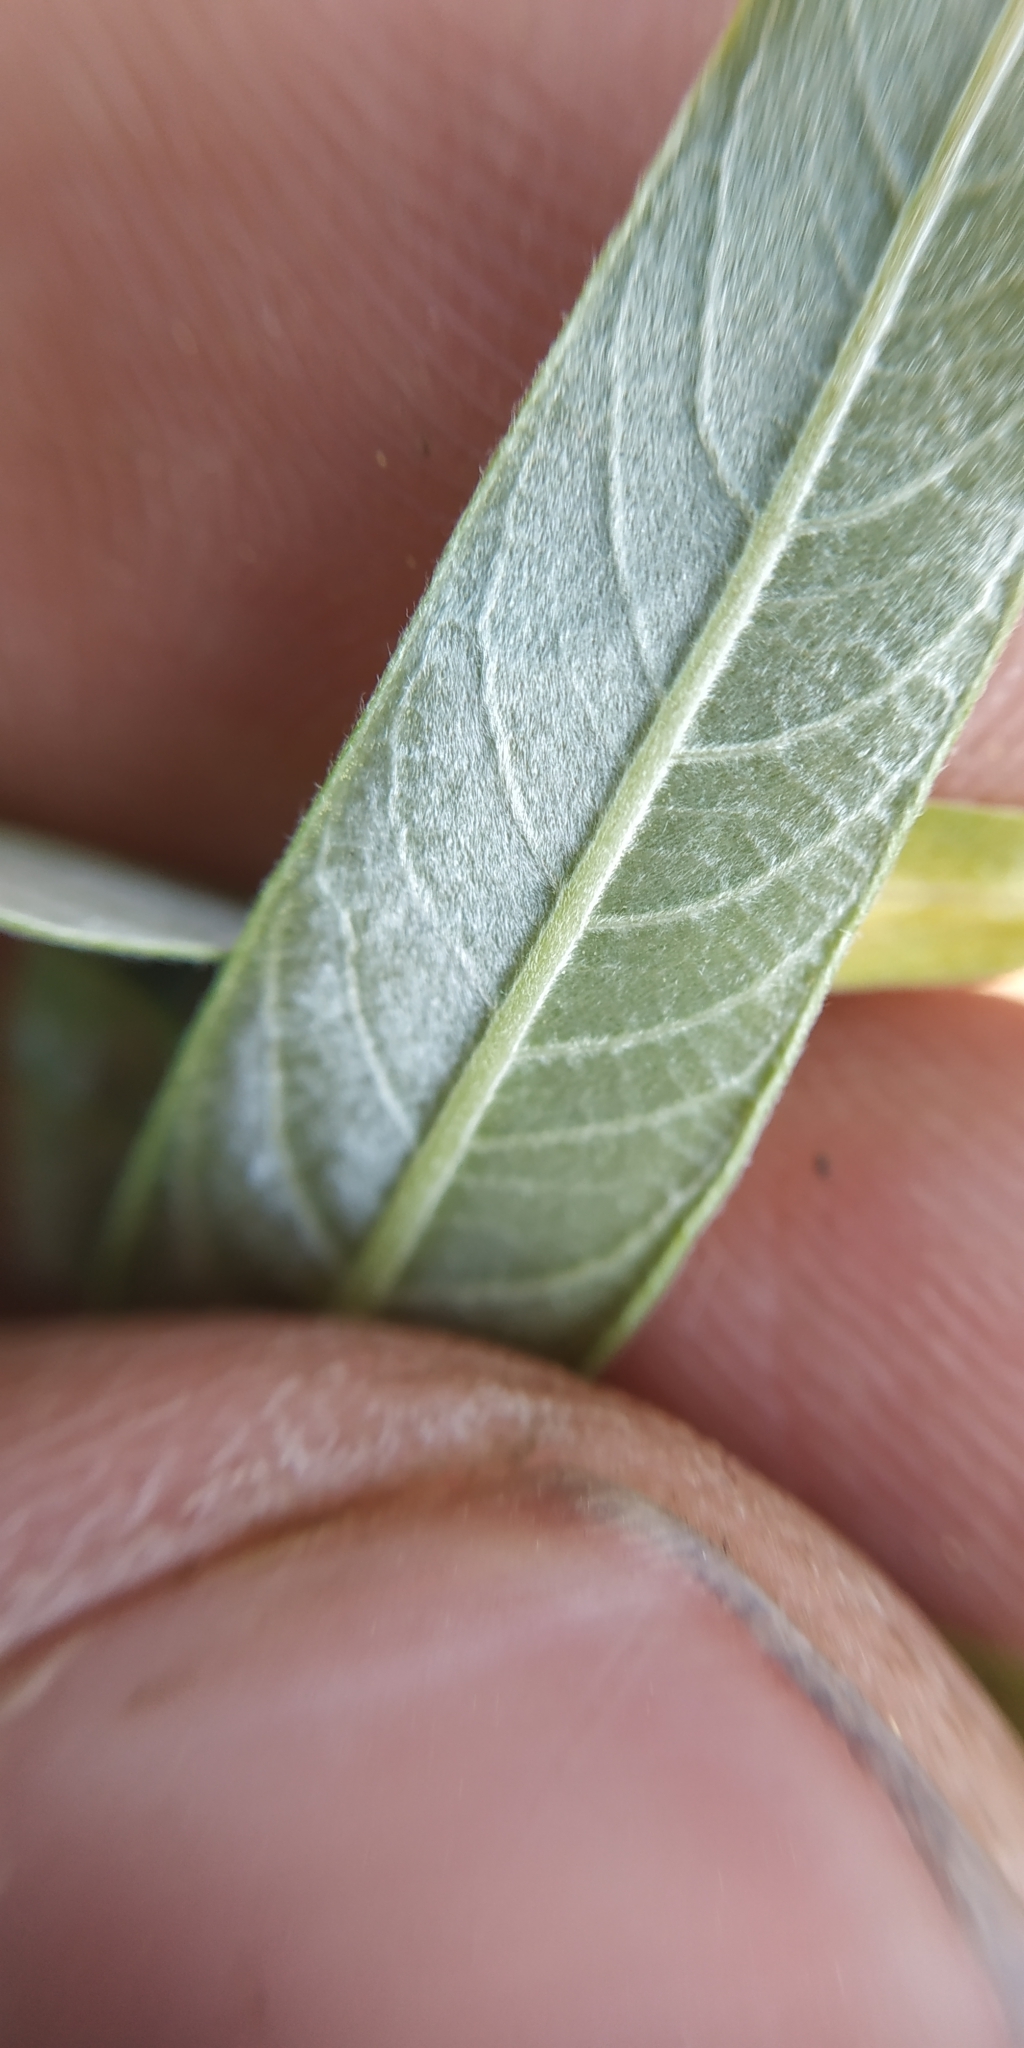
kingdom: Plantae
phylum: Tracheophyta
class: Magnoliopsida
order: Malpighiales
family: Salicaceae
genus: Salix
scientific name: Salix alba
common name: White willow
